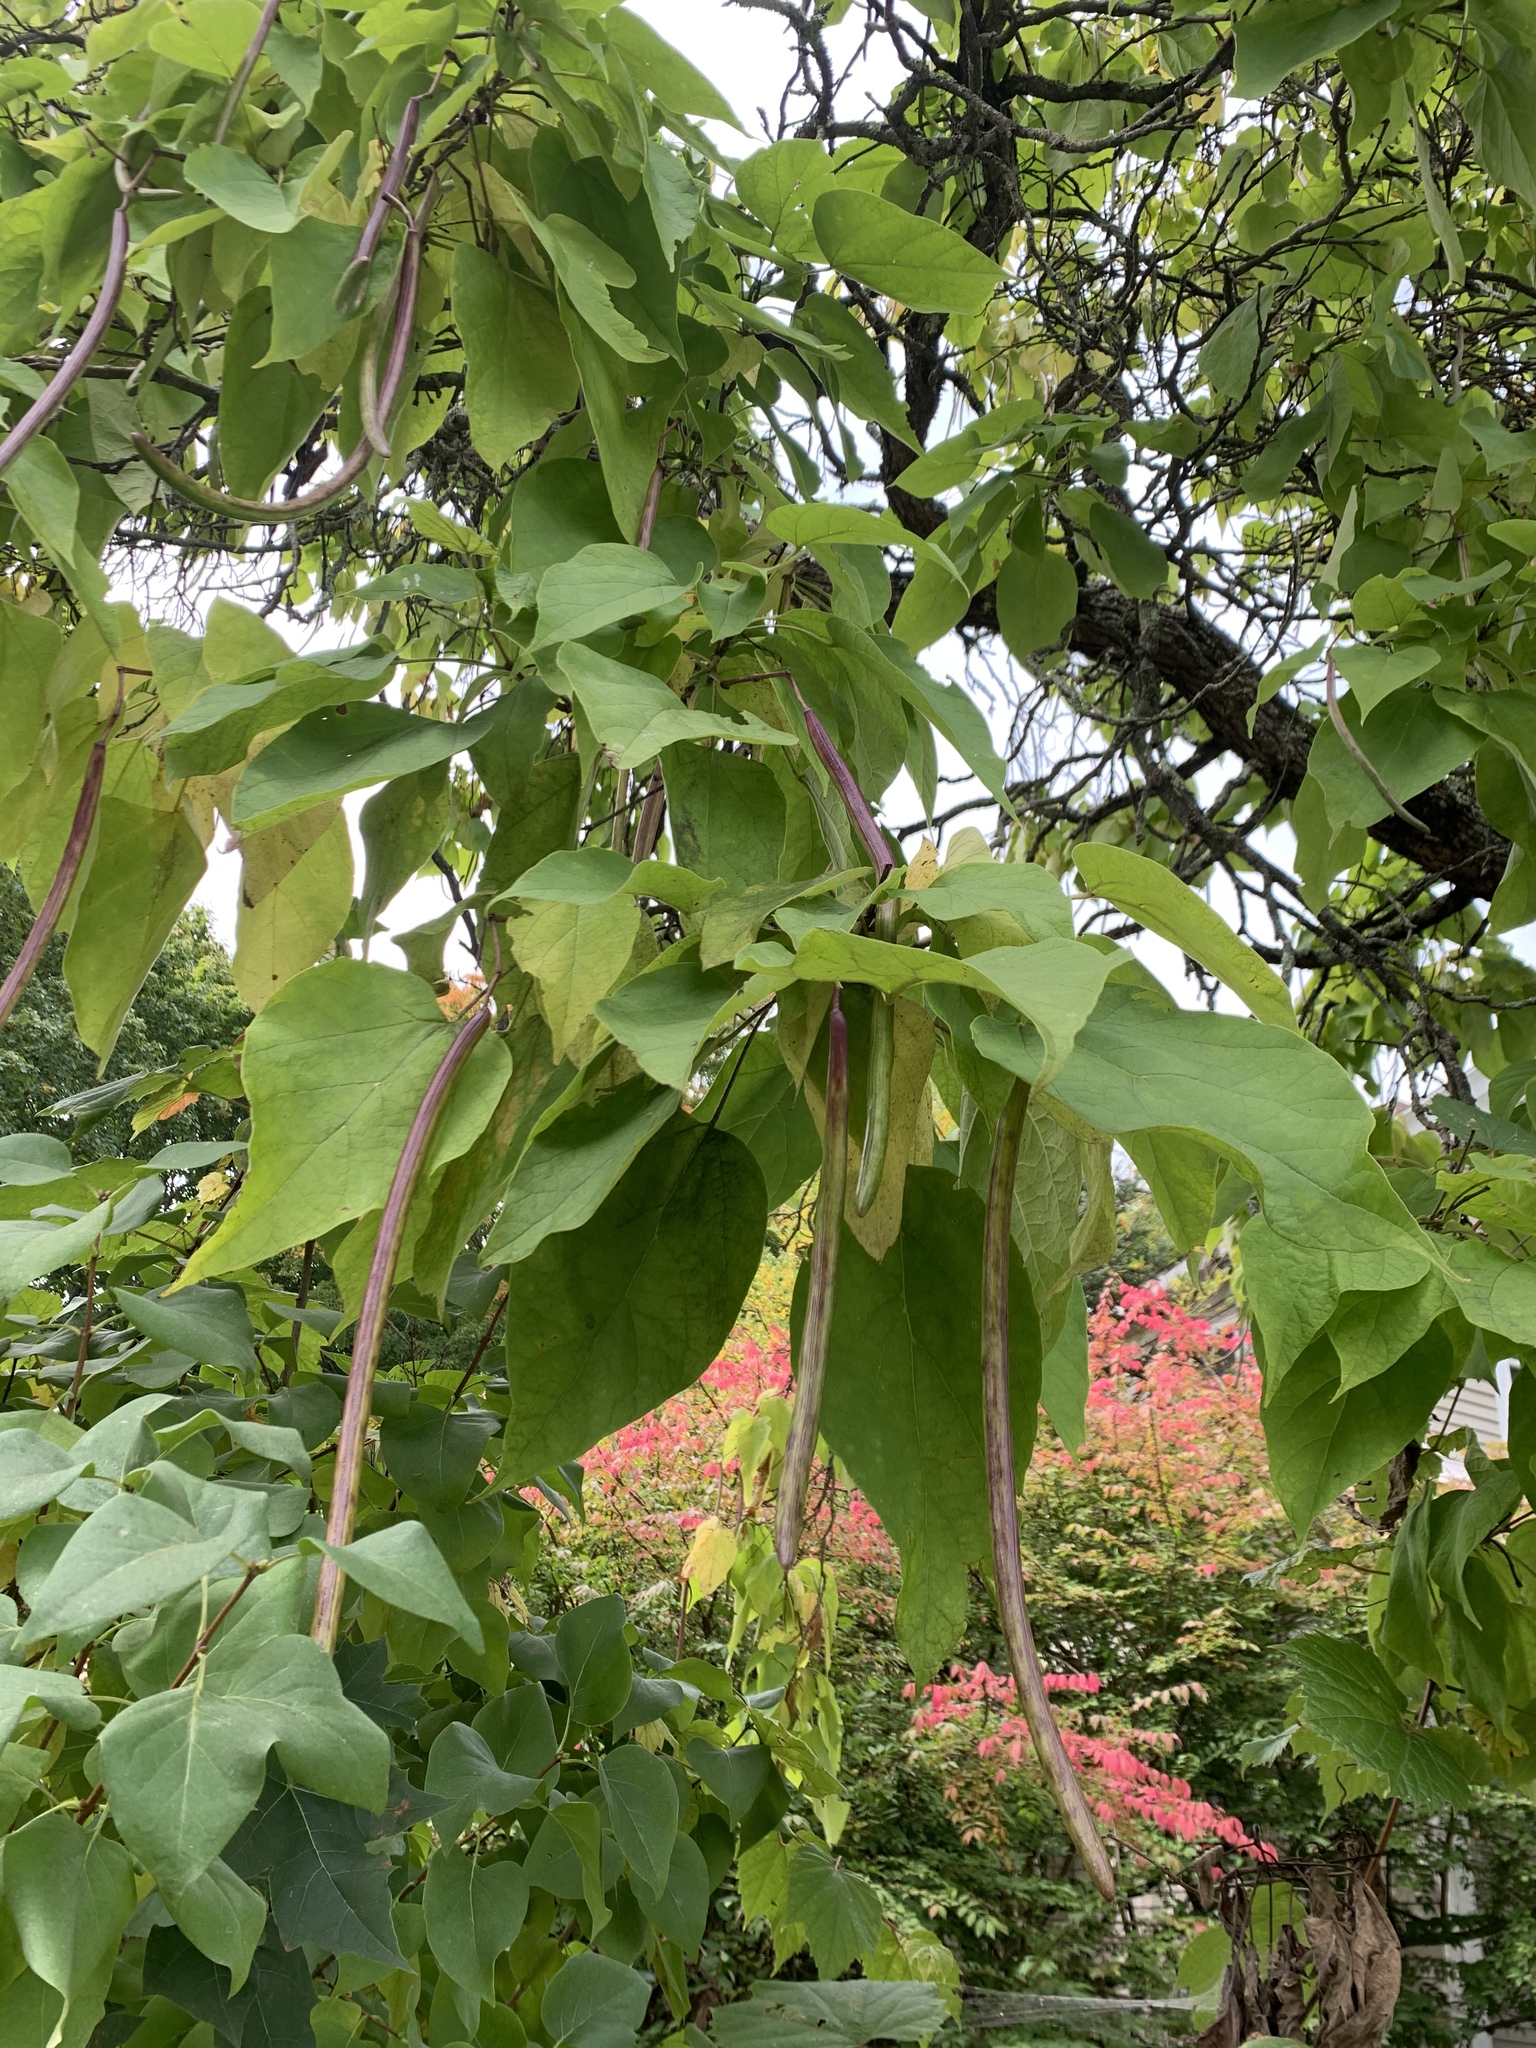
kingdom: Plantae
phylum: Tracheophyta
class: Magnoliopsida
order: Lamiales
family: Bignoniaceae
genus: Catalpa
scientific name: Catalpa speciosa
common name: Northern catalpa
